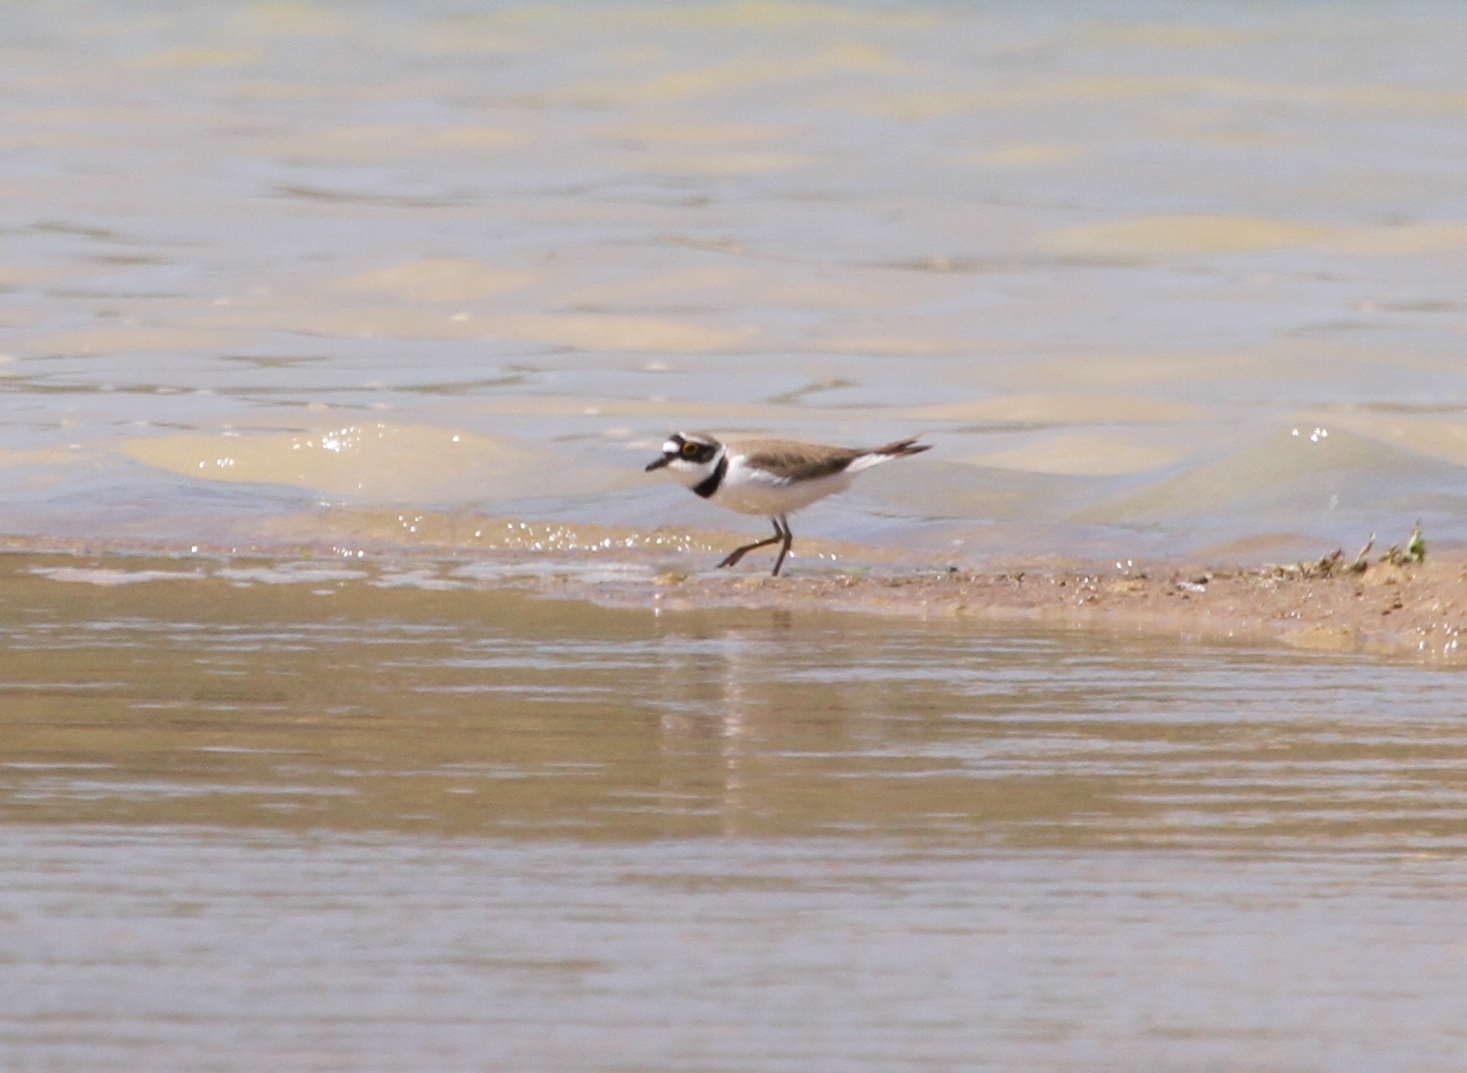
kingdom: Animalia
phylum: Chordata
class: Aves
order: Charadriiformes
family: Charadriidae
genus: Charadrius
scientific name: Charadrius dubius
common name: Little ringed plover
